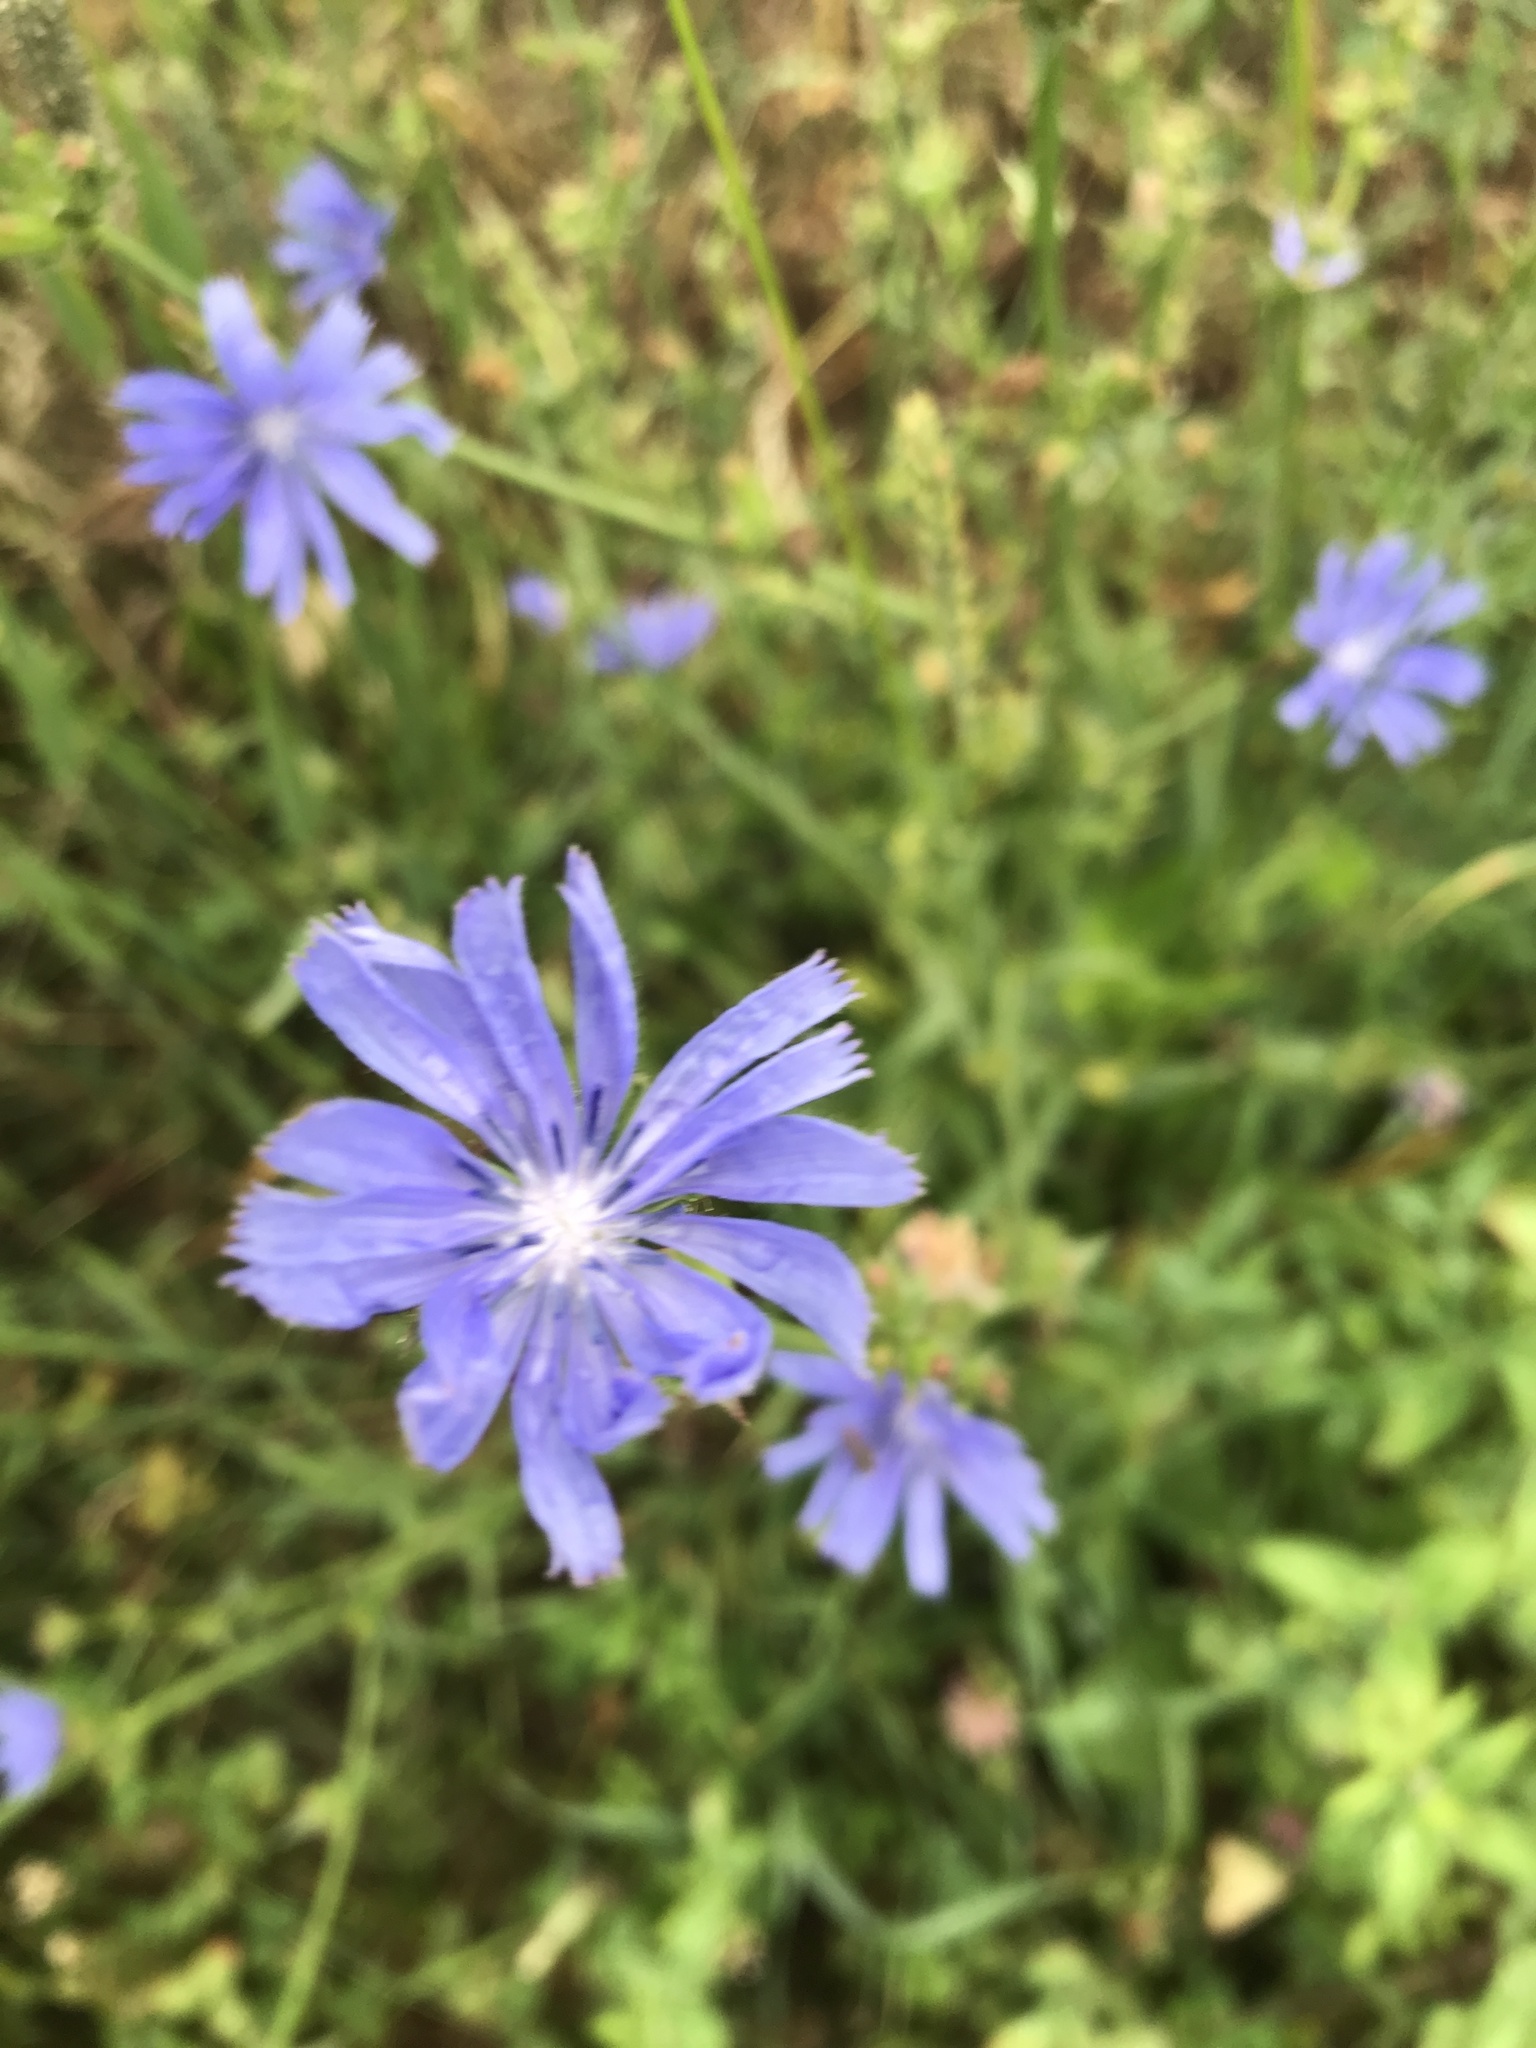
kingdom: Plantae
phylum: Tracheophyta
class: Magnoliopsida
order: Asterales
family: Asteraceae
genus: Cichorium
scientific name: Cichorium intybus
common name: Chicory
